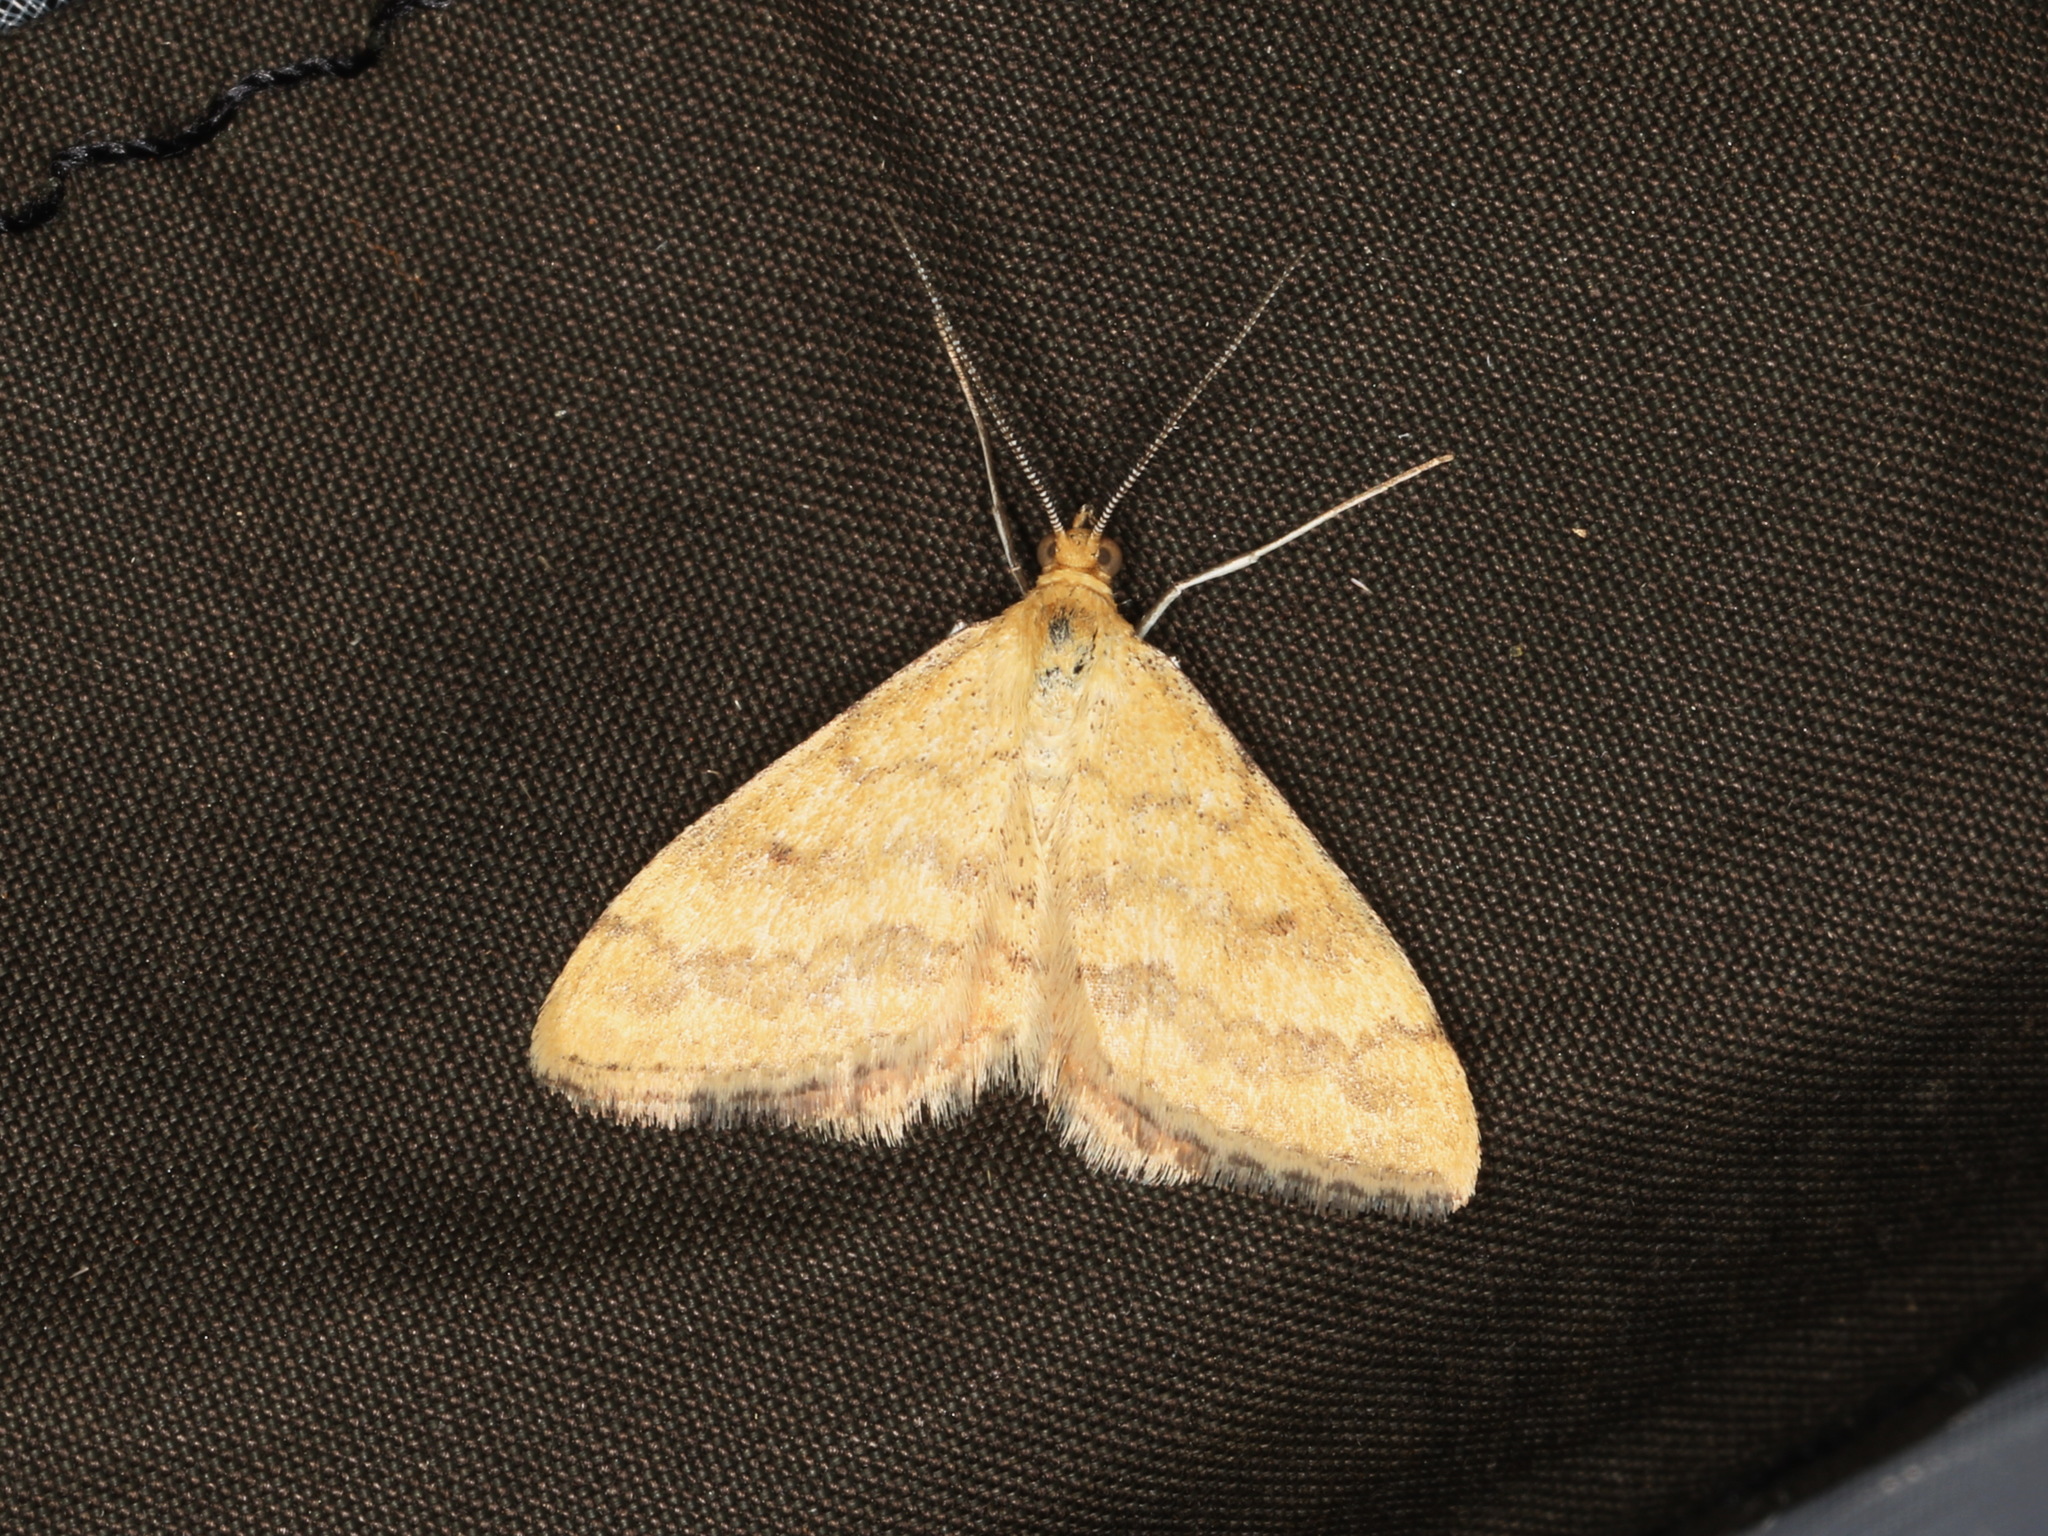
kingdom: Animalia
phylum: Arthropoda
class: Insecta
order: Lepidoptera
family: Geometridae
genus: Scopula
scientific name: Scopula rubraria
